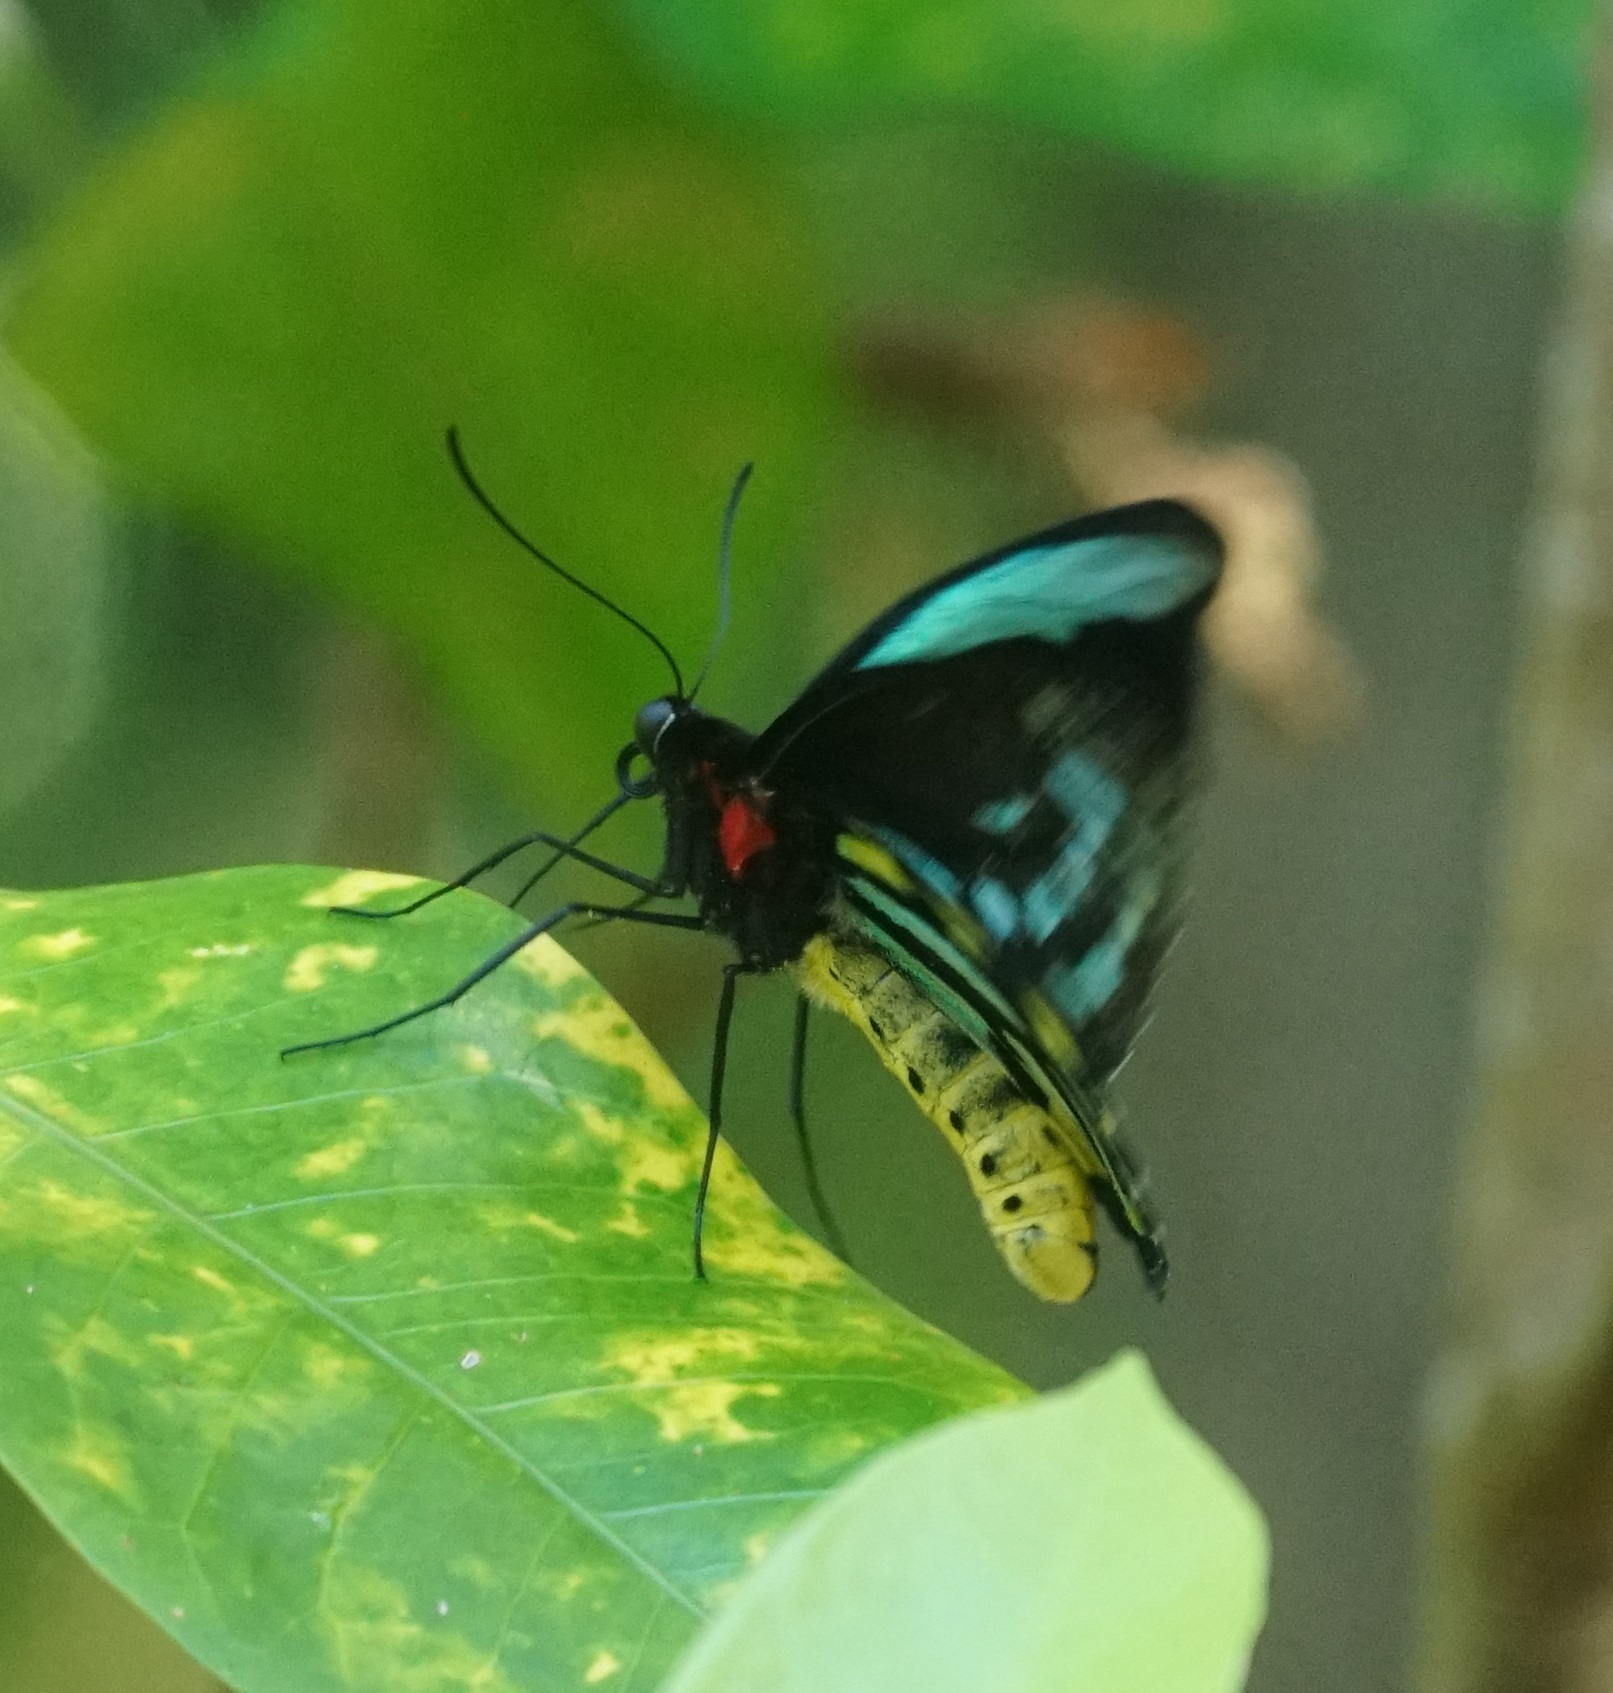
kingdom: Animalia
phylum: Arthropoda
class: Insecta
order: Lepidoptera
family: Papilionidae
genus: Ornithoptera
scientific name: Ornithoptera euphorion
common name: Cairns birdwing
